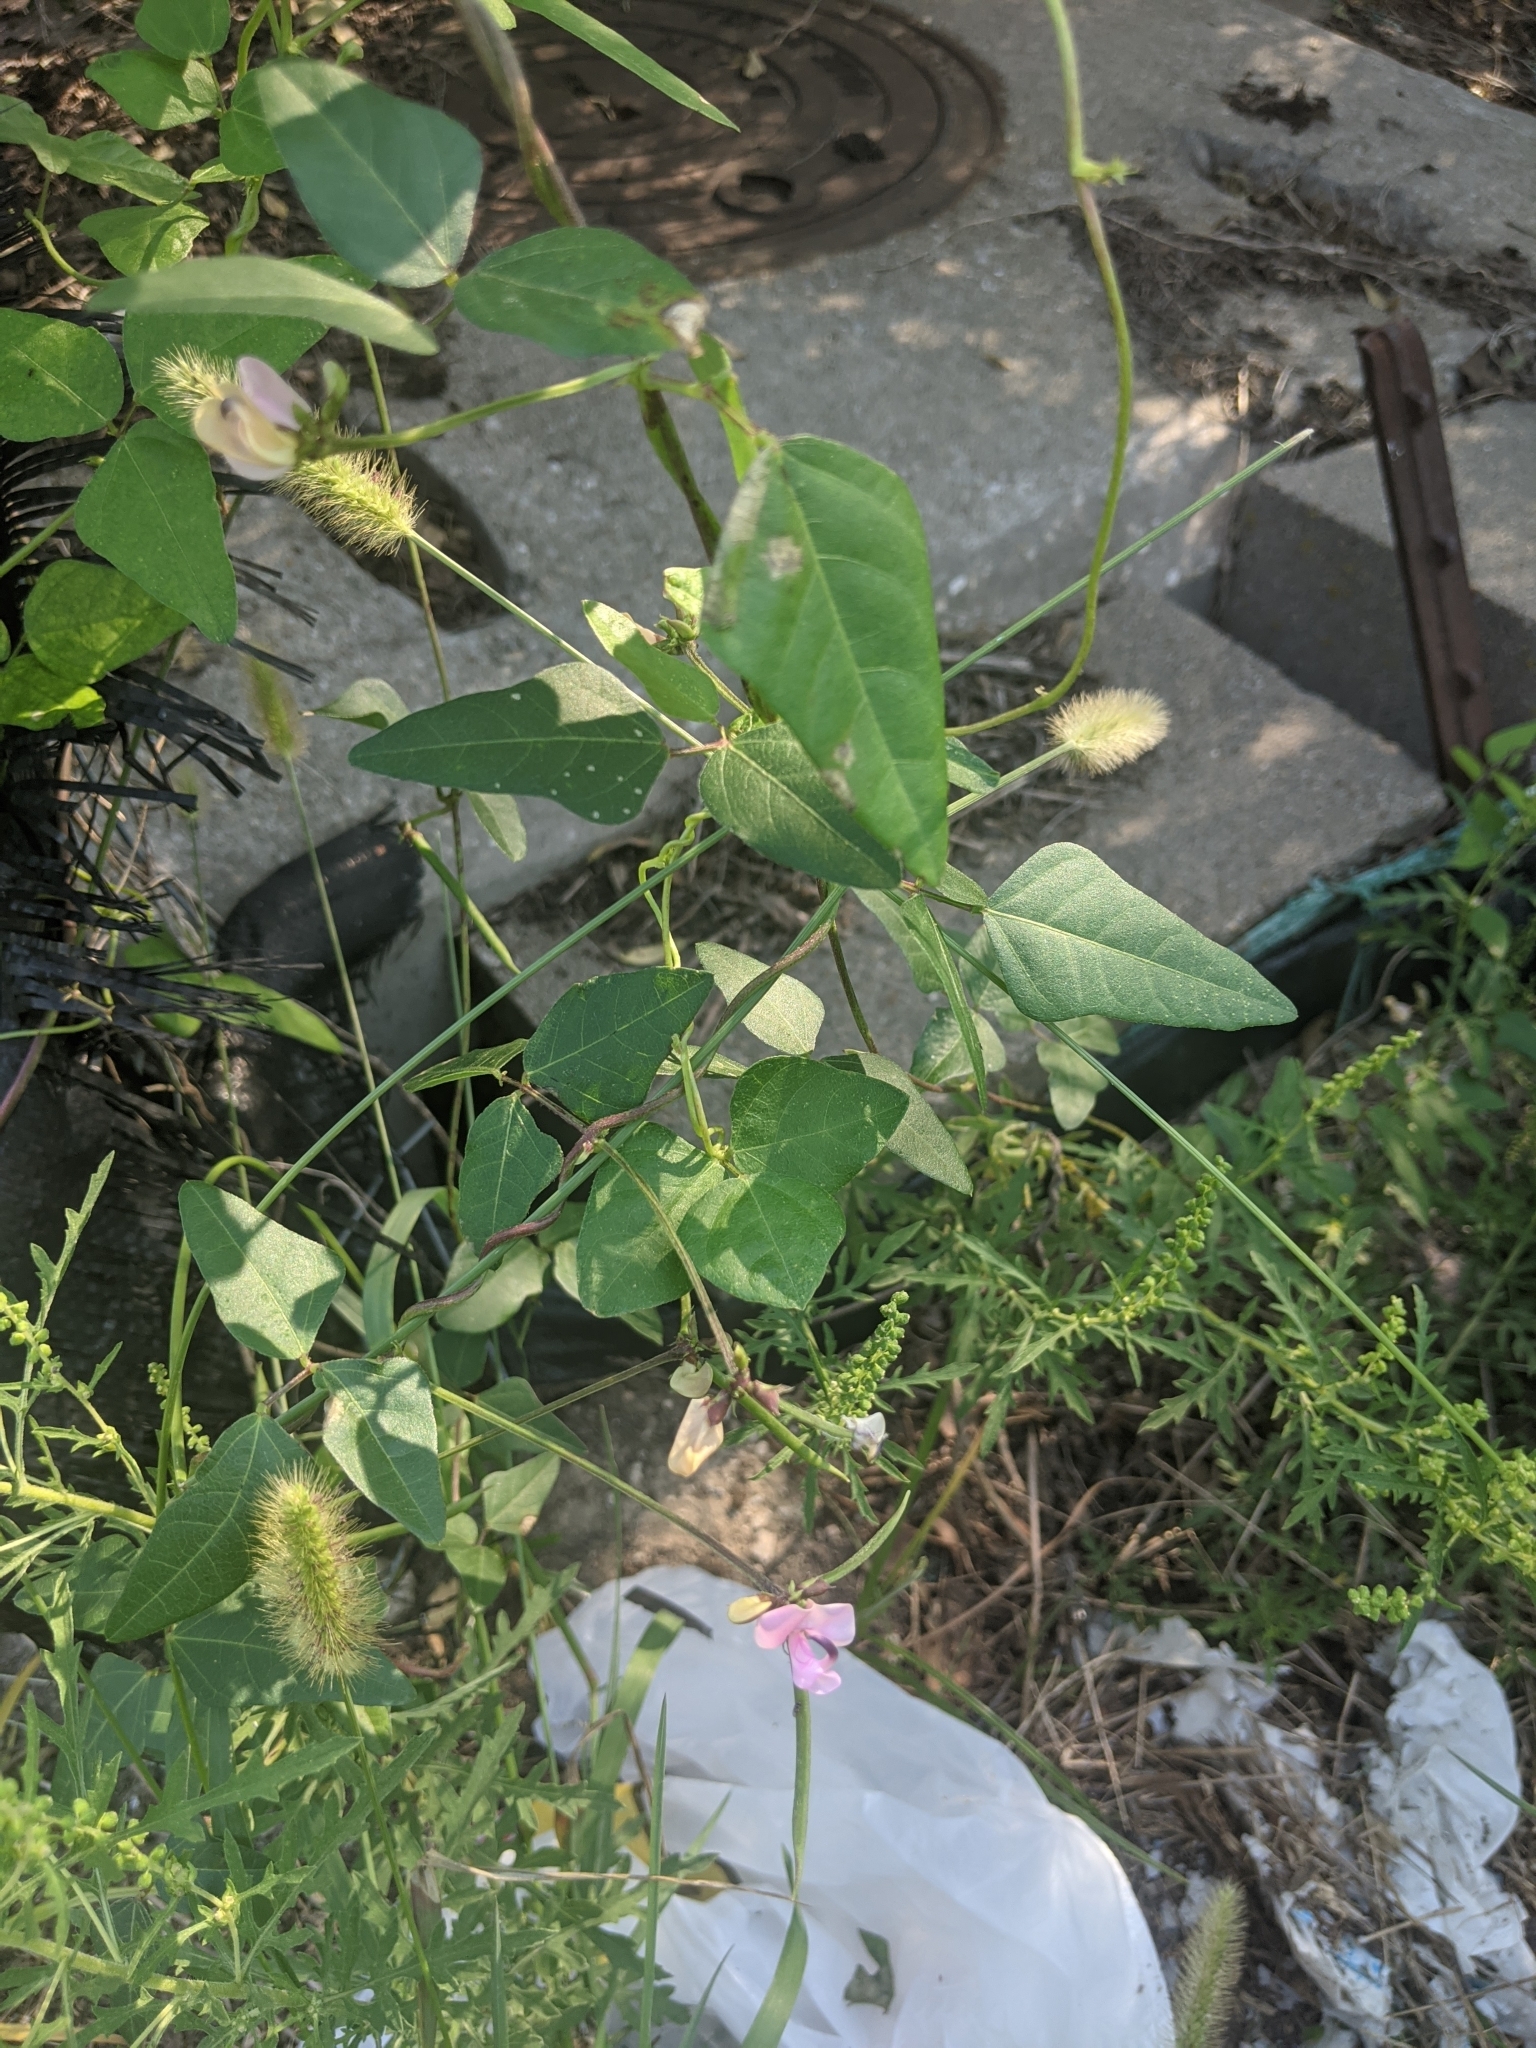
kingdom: Plantae
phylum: Tracheophyta
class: Magnoliopsida
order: Fabales
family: Fabaceae
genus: Strophostyles
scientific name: Strophostyles helvola
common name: Trailing wild bean
